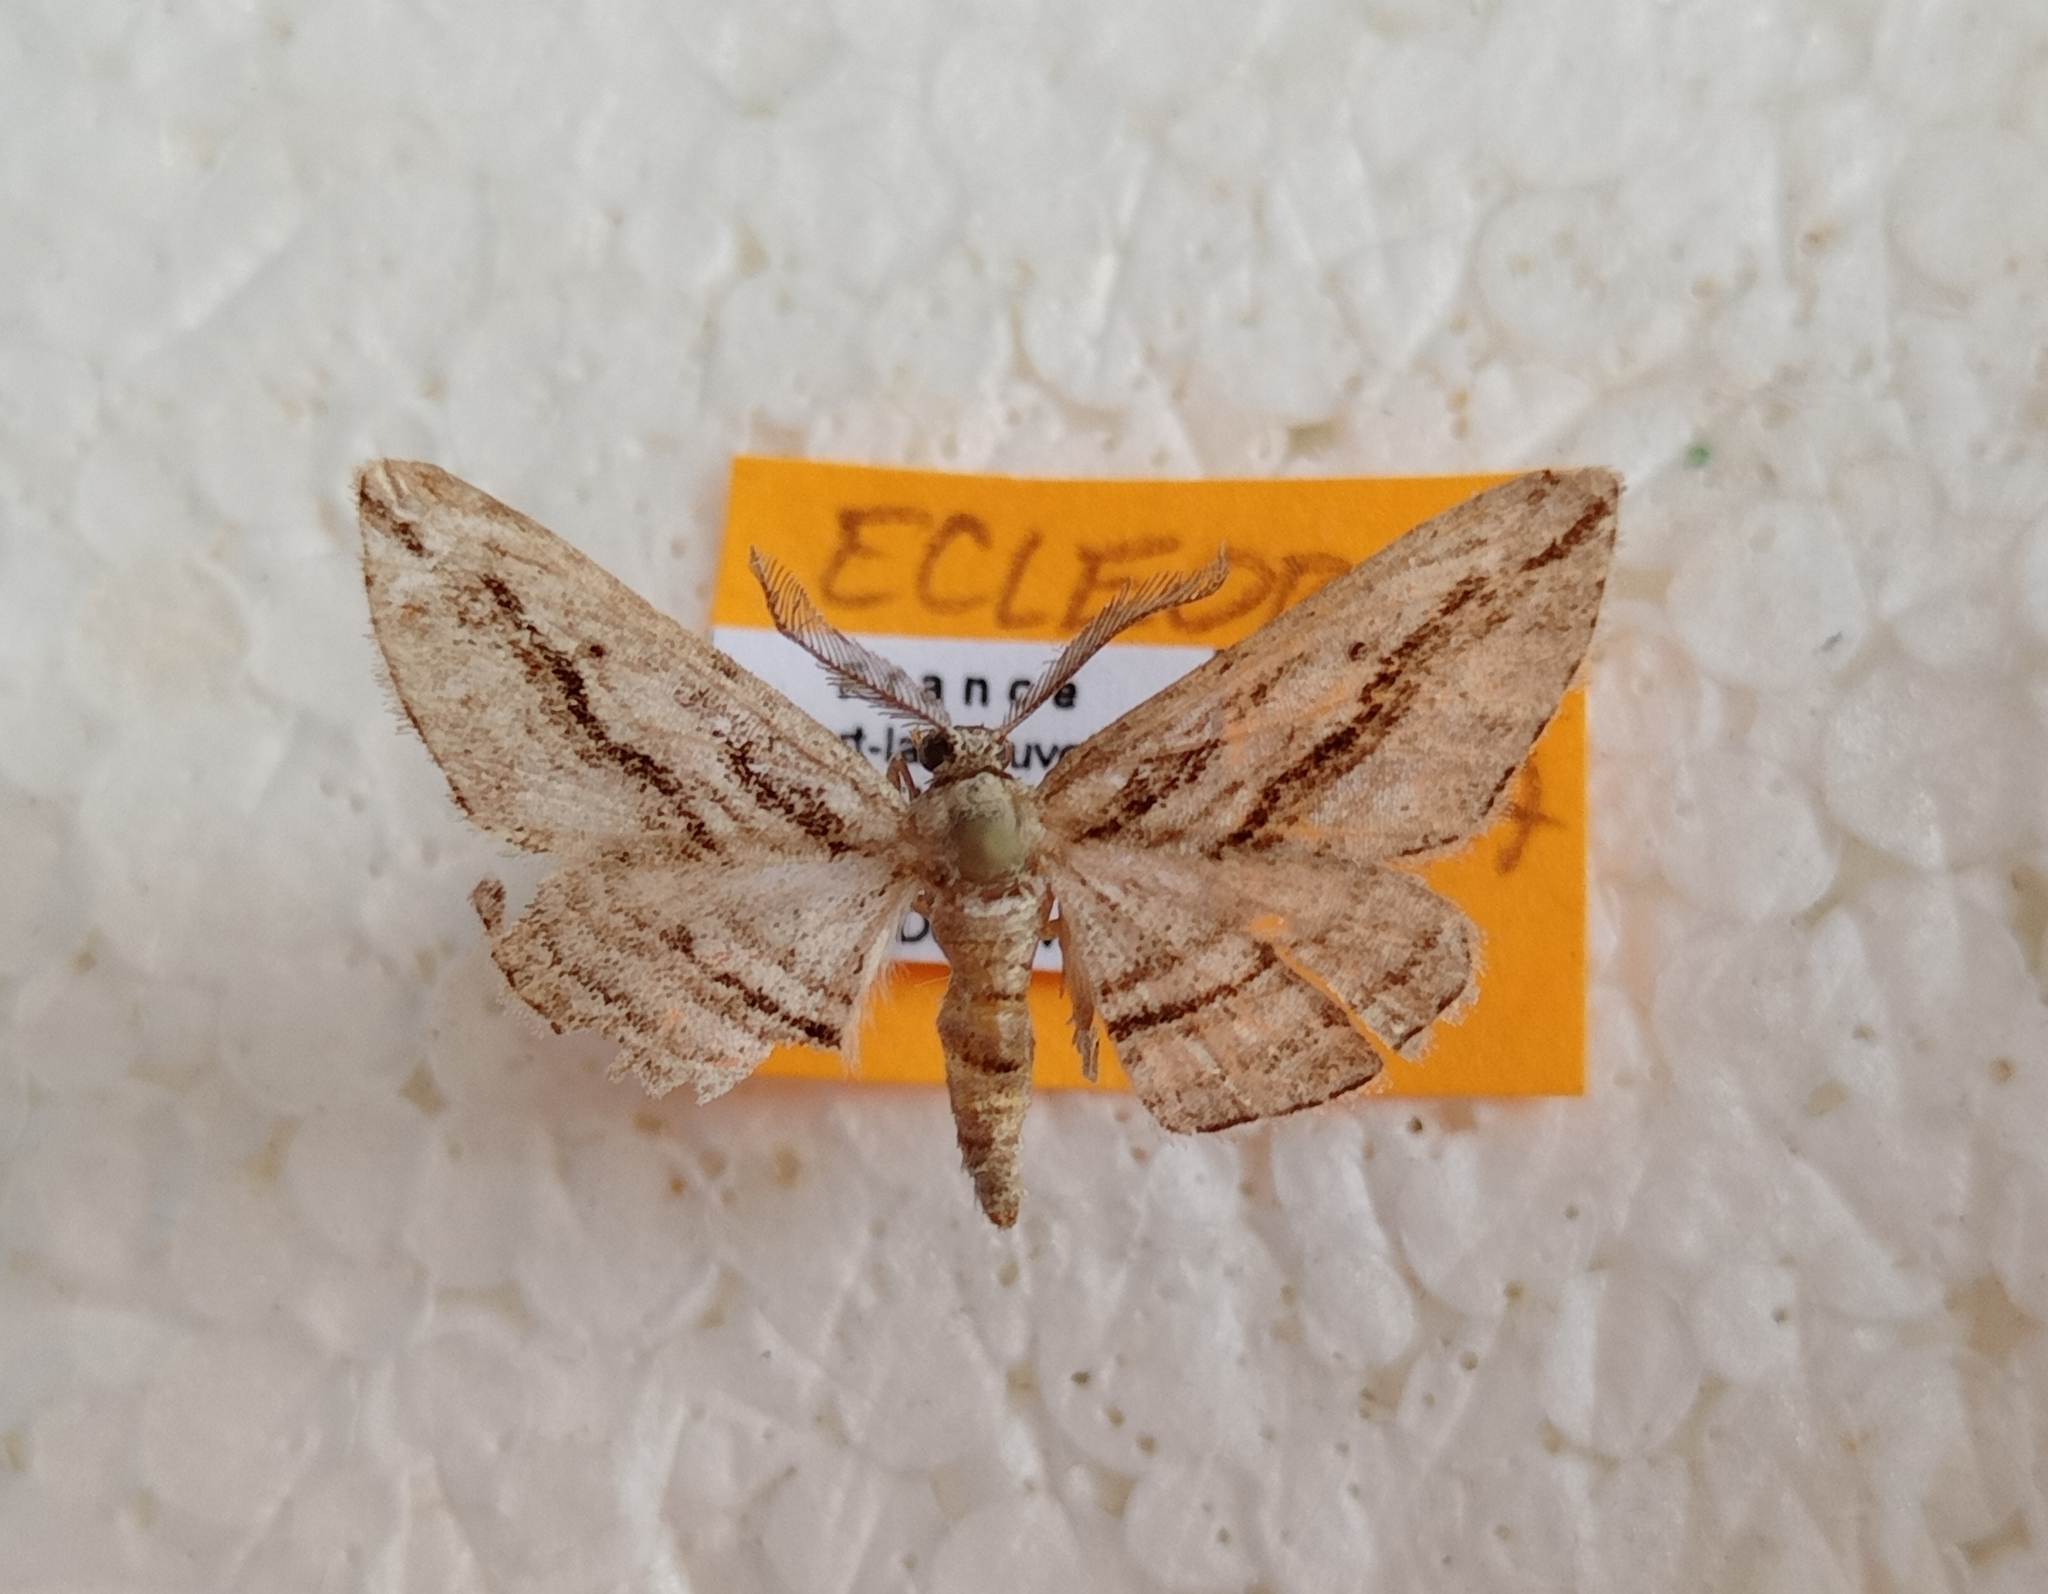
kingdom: Animalia
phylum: Arthropoda
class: Insecta
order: Lepidoptera
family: Geometridae
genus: Ecleora
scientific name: Ecleora solieraria
